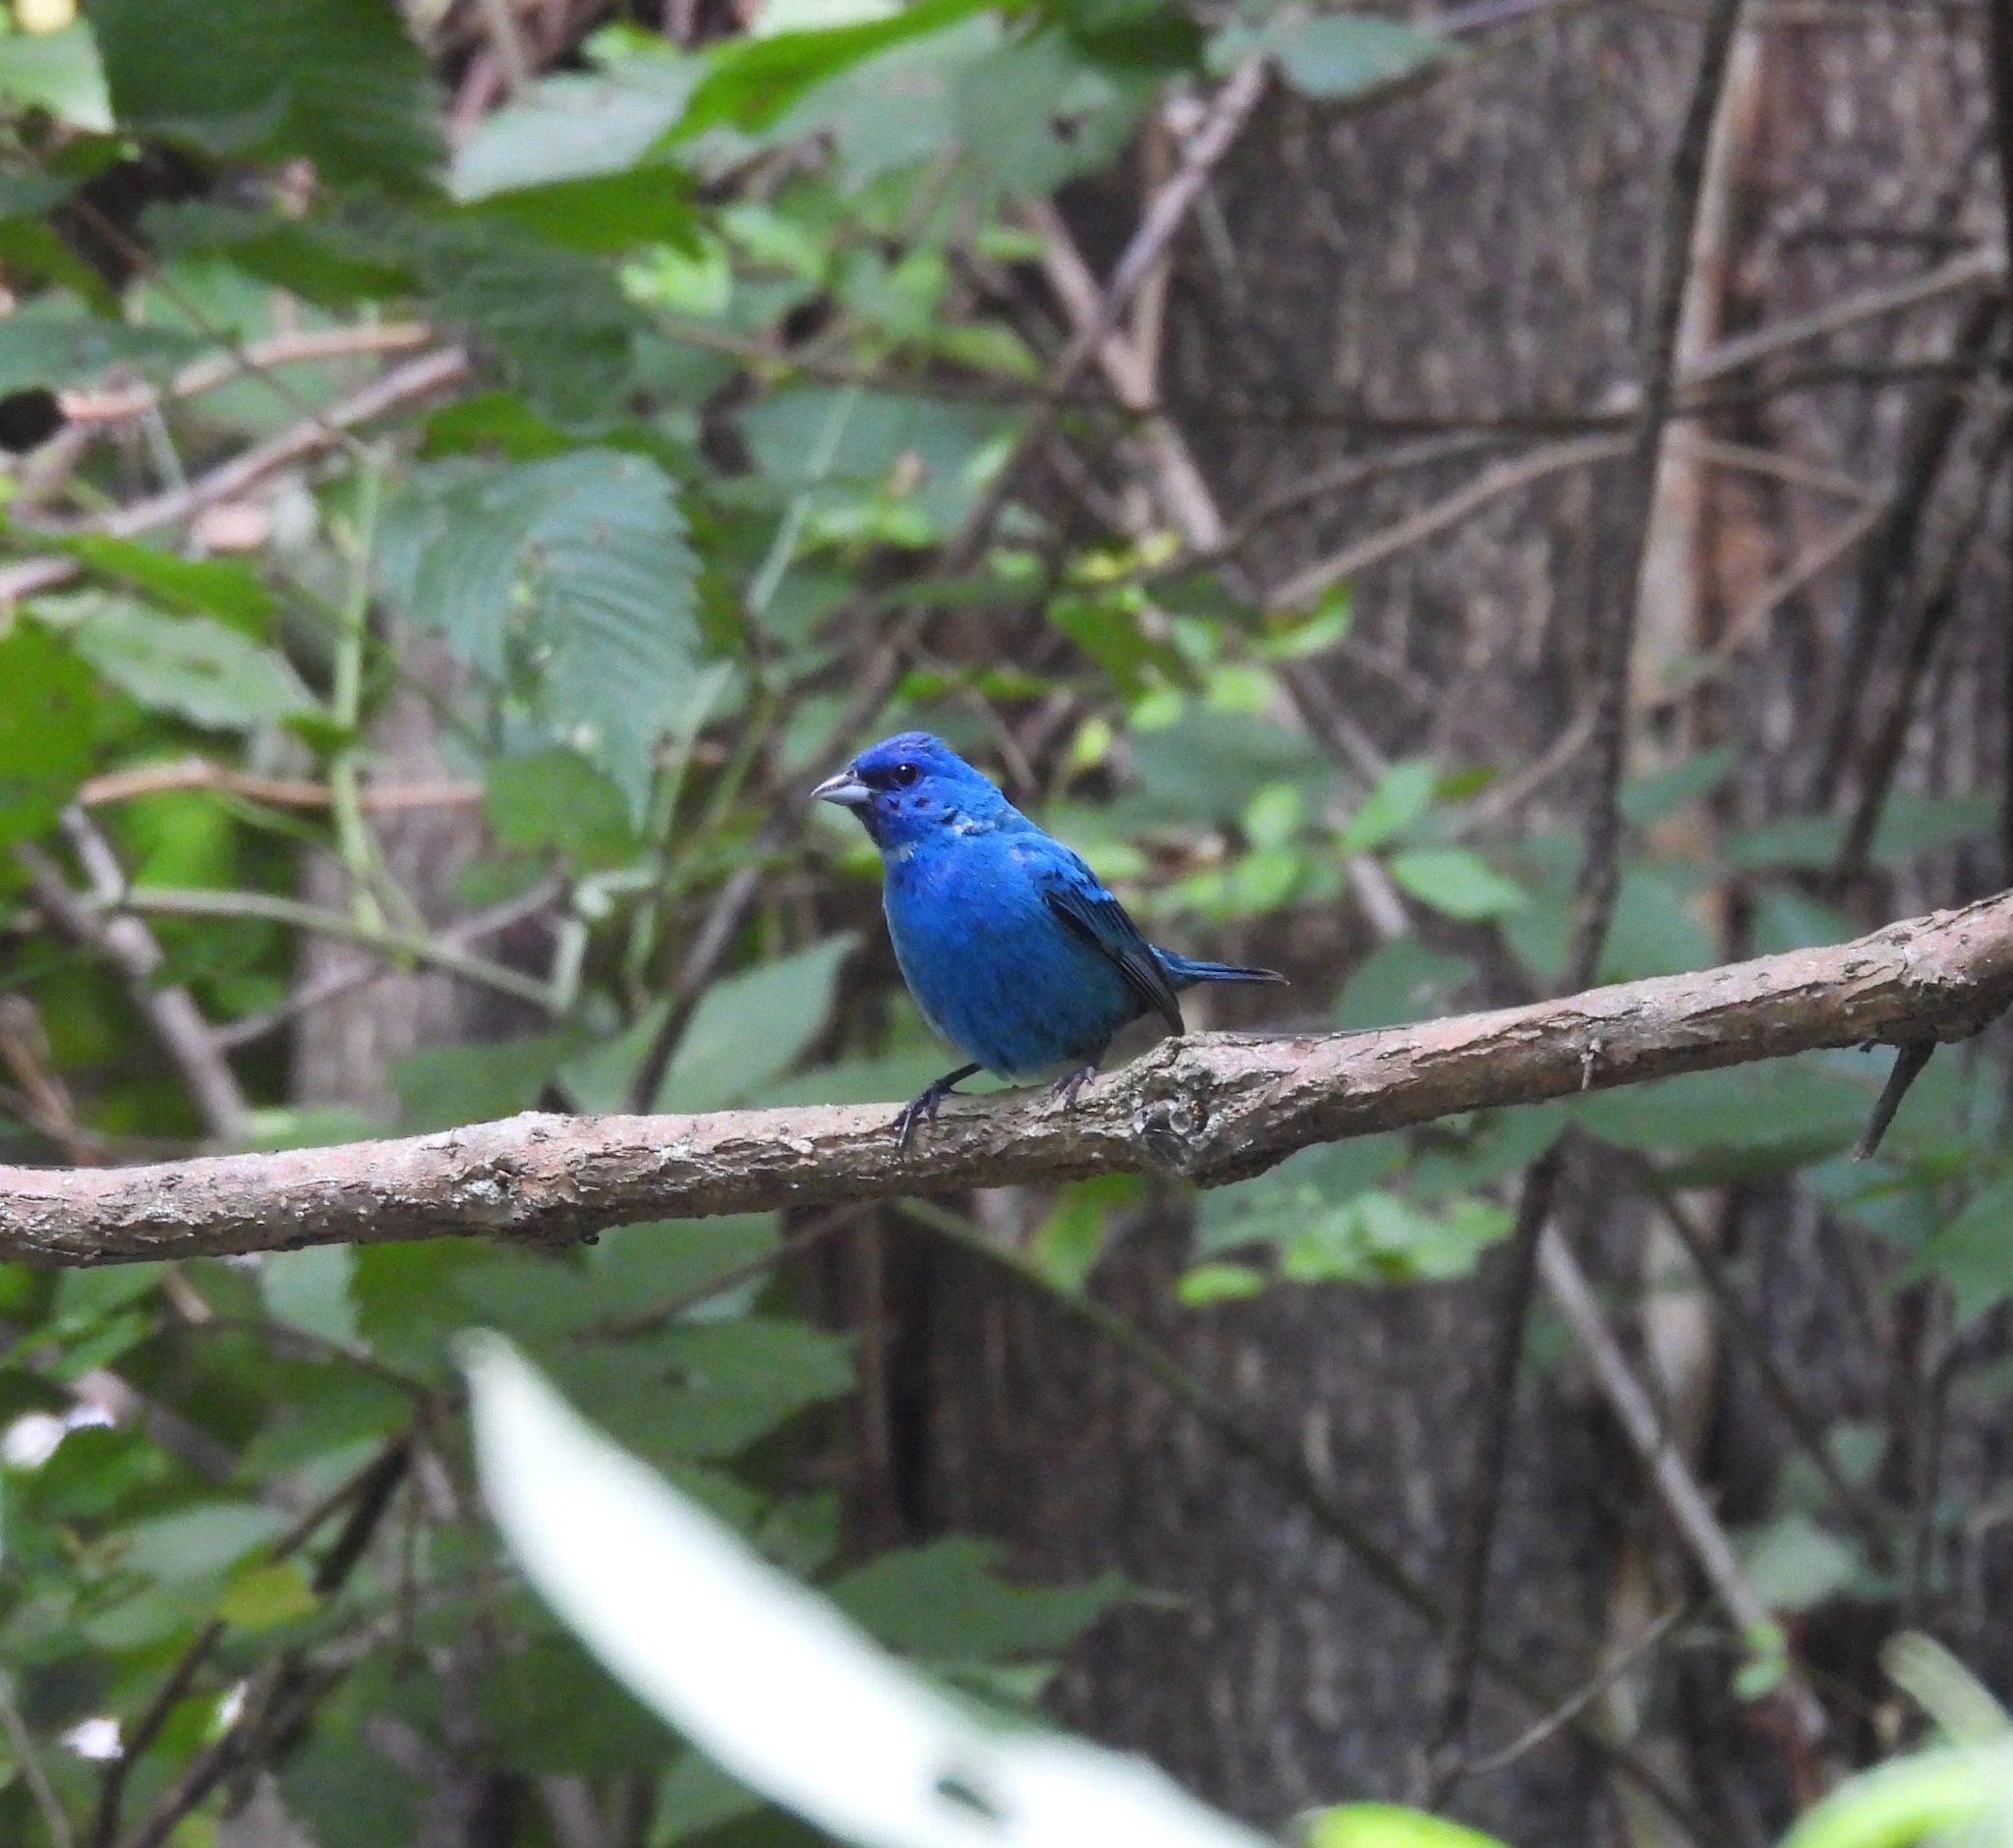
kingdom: Animalia
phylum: Chordata
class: Aves
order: Passeriformes
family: Cardinalidae
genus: Passerina
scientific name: Passerina cyanea
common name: Indigo bunting
